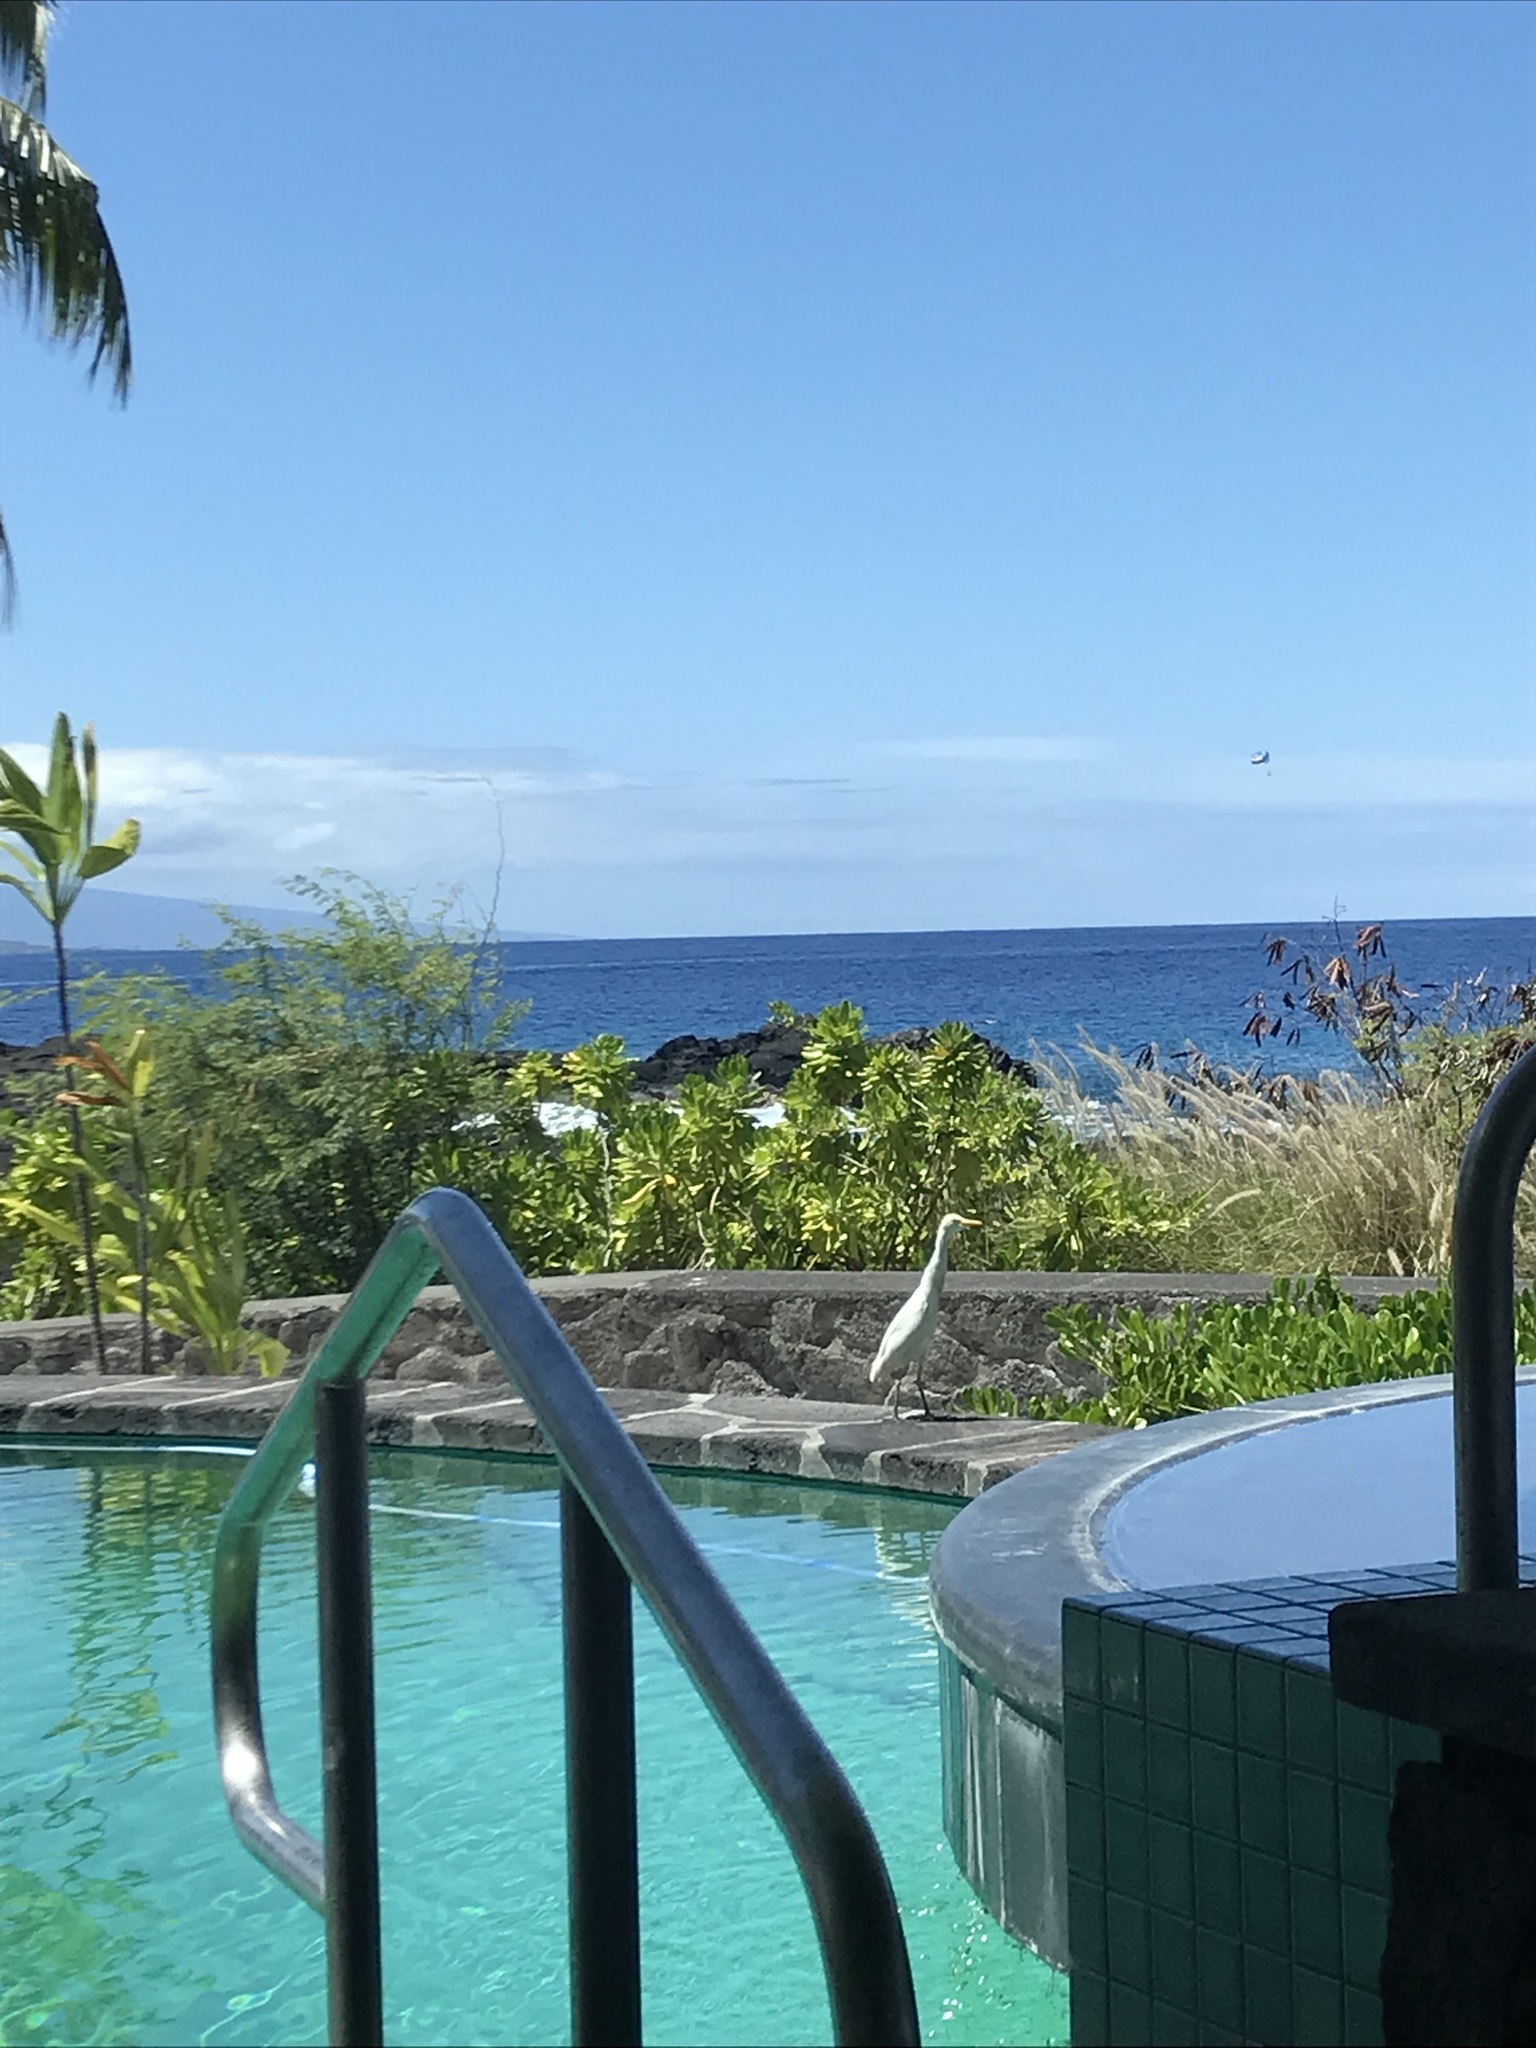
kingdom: Animalia
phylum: Chordata
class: Aves
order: Pelecaniformes
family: Ardeidae
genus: Bubulcus
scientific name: Bubulcus ibis
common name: Cattle egret
